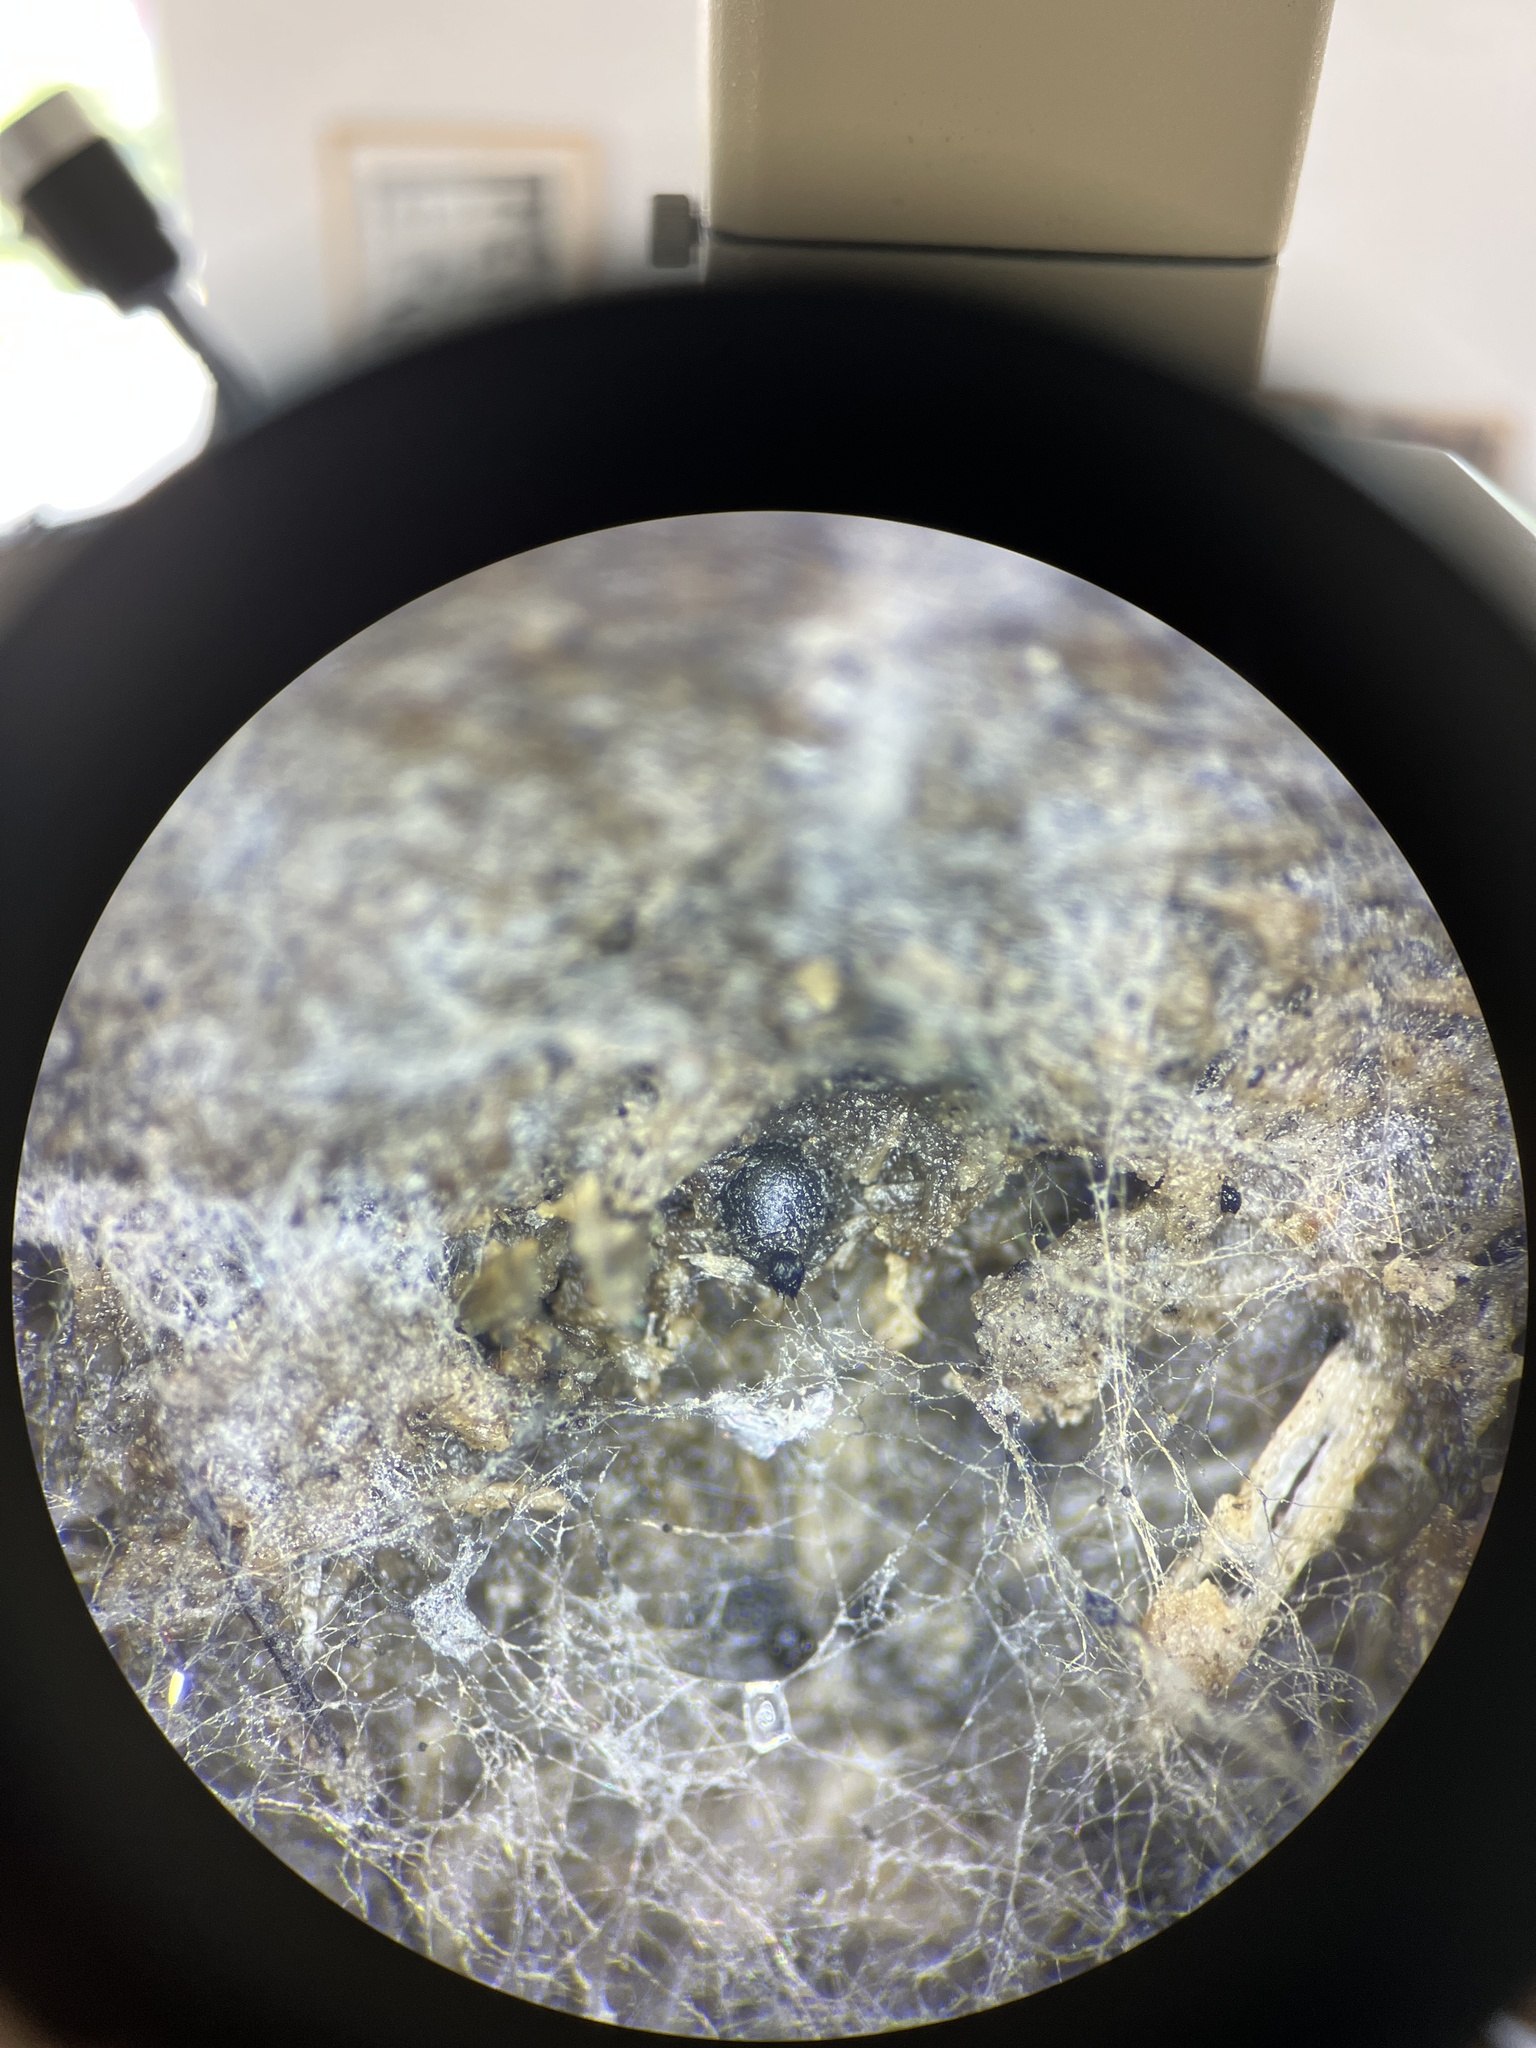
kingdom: Fungi
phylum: Ascomycota
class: Sordariomycetes
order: Sordariales
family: Podosporaceae
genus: Podospora
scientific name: Podospora globosa
